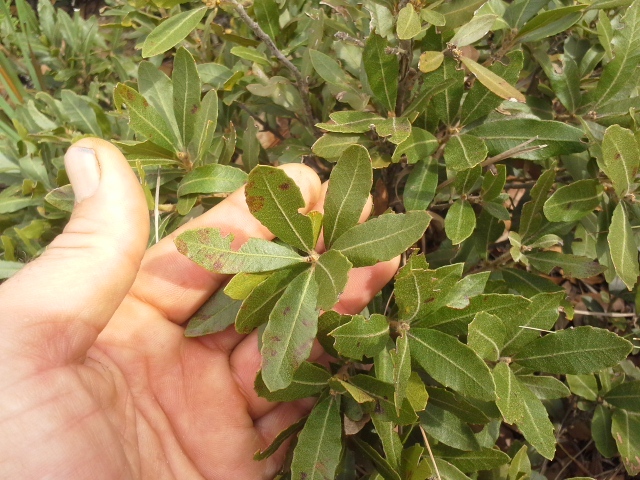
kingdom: Plantae
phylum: Tracheophyta
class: Magnoliopsida
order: Fagales
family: Myricaceae
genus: Morella
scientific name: Morella brevifolia
